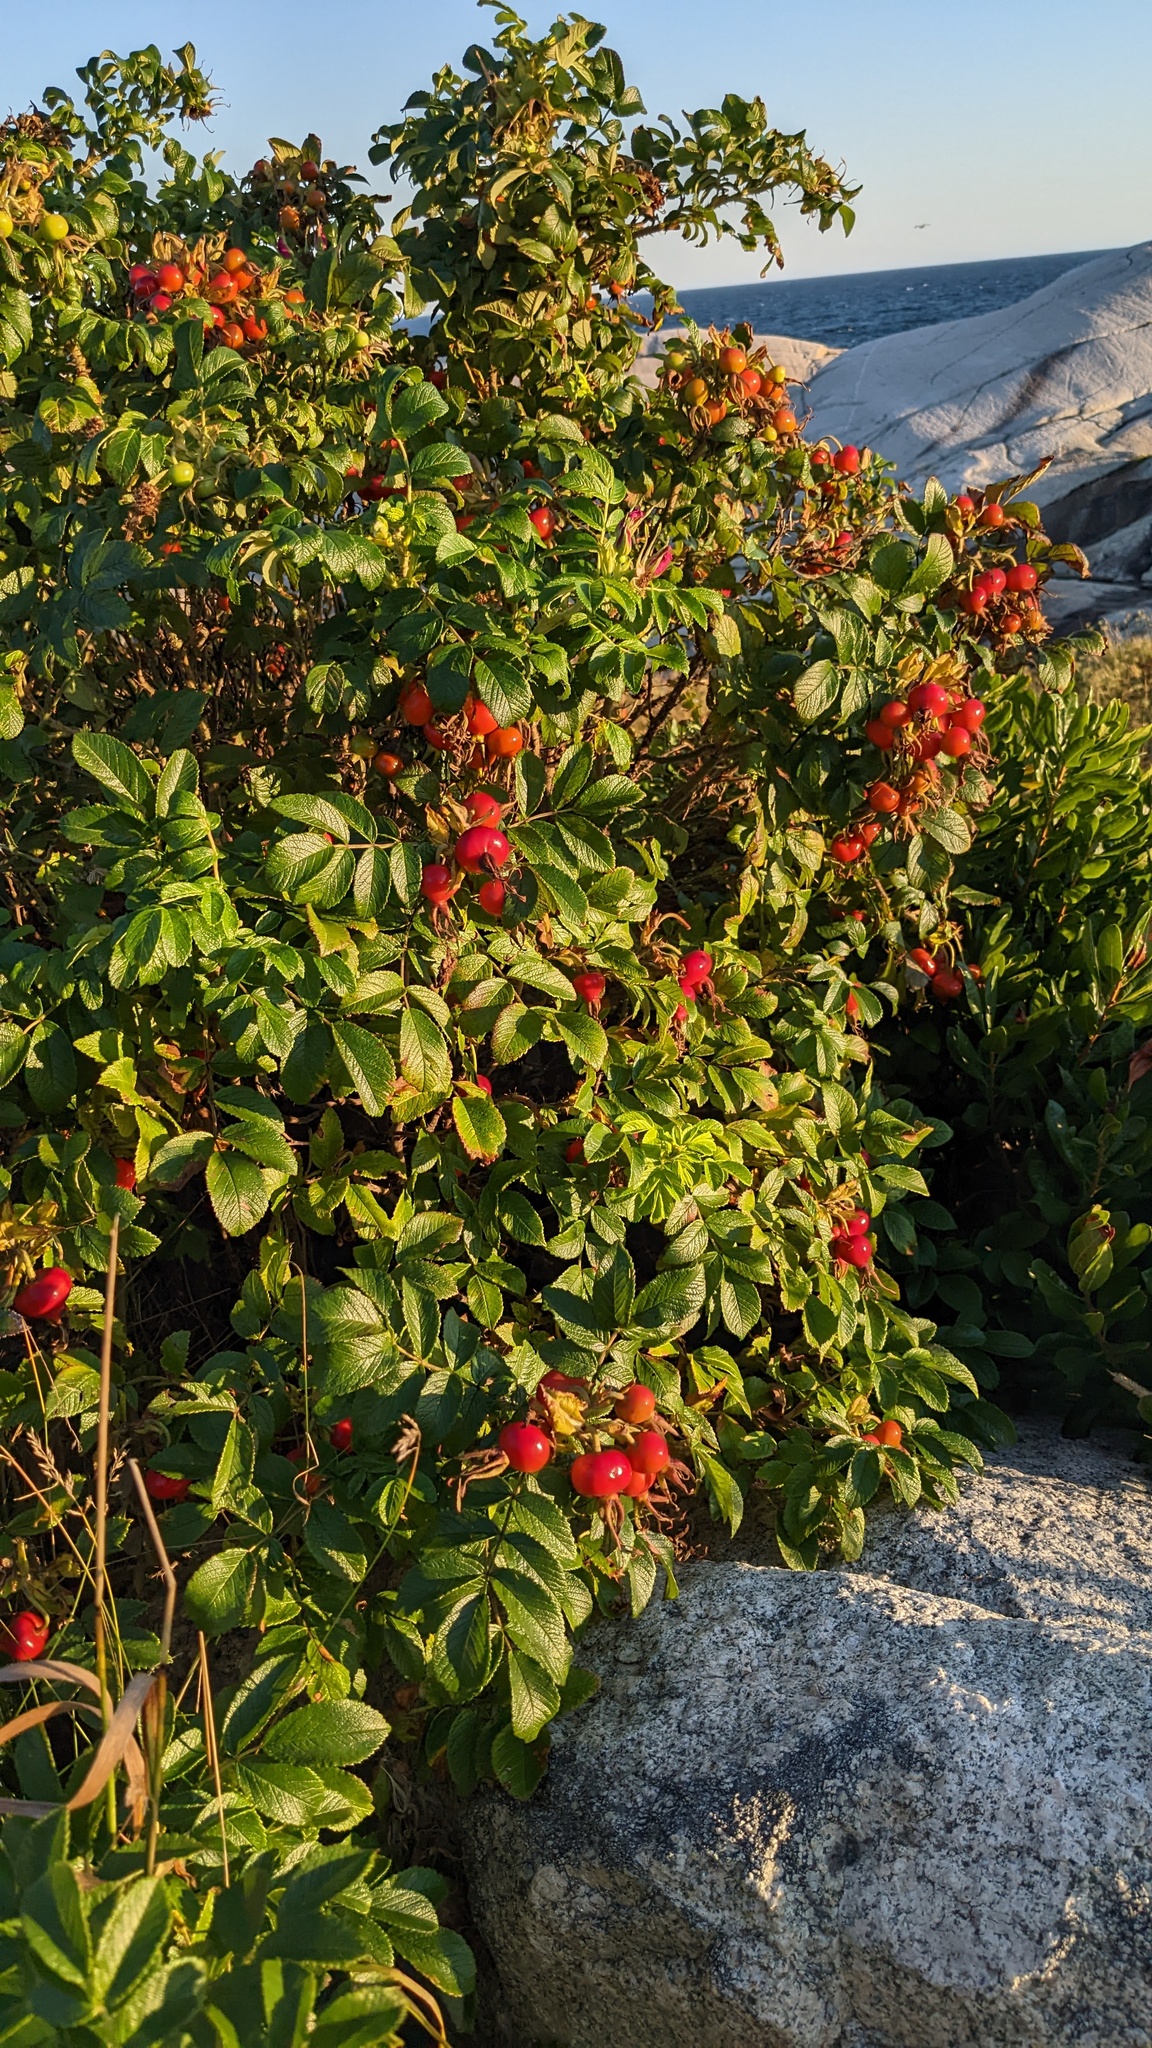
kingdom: Plantae
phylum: Tracheophyta
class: Magnoliopsida
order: Rosales
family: Rosaceae
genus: Rosa
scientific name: Rosa rugosa
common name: Japanese rose
